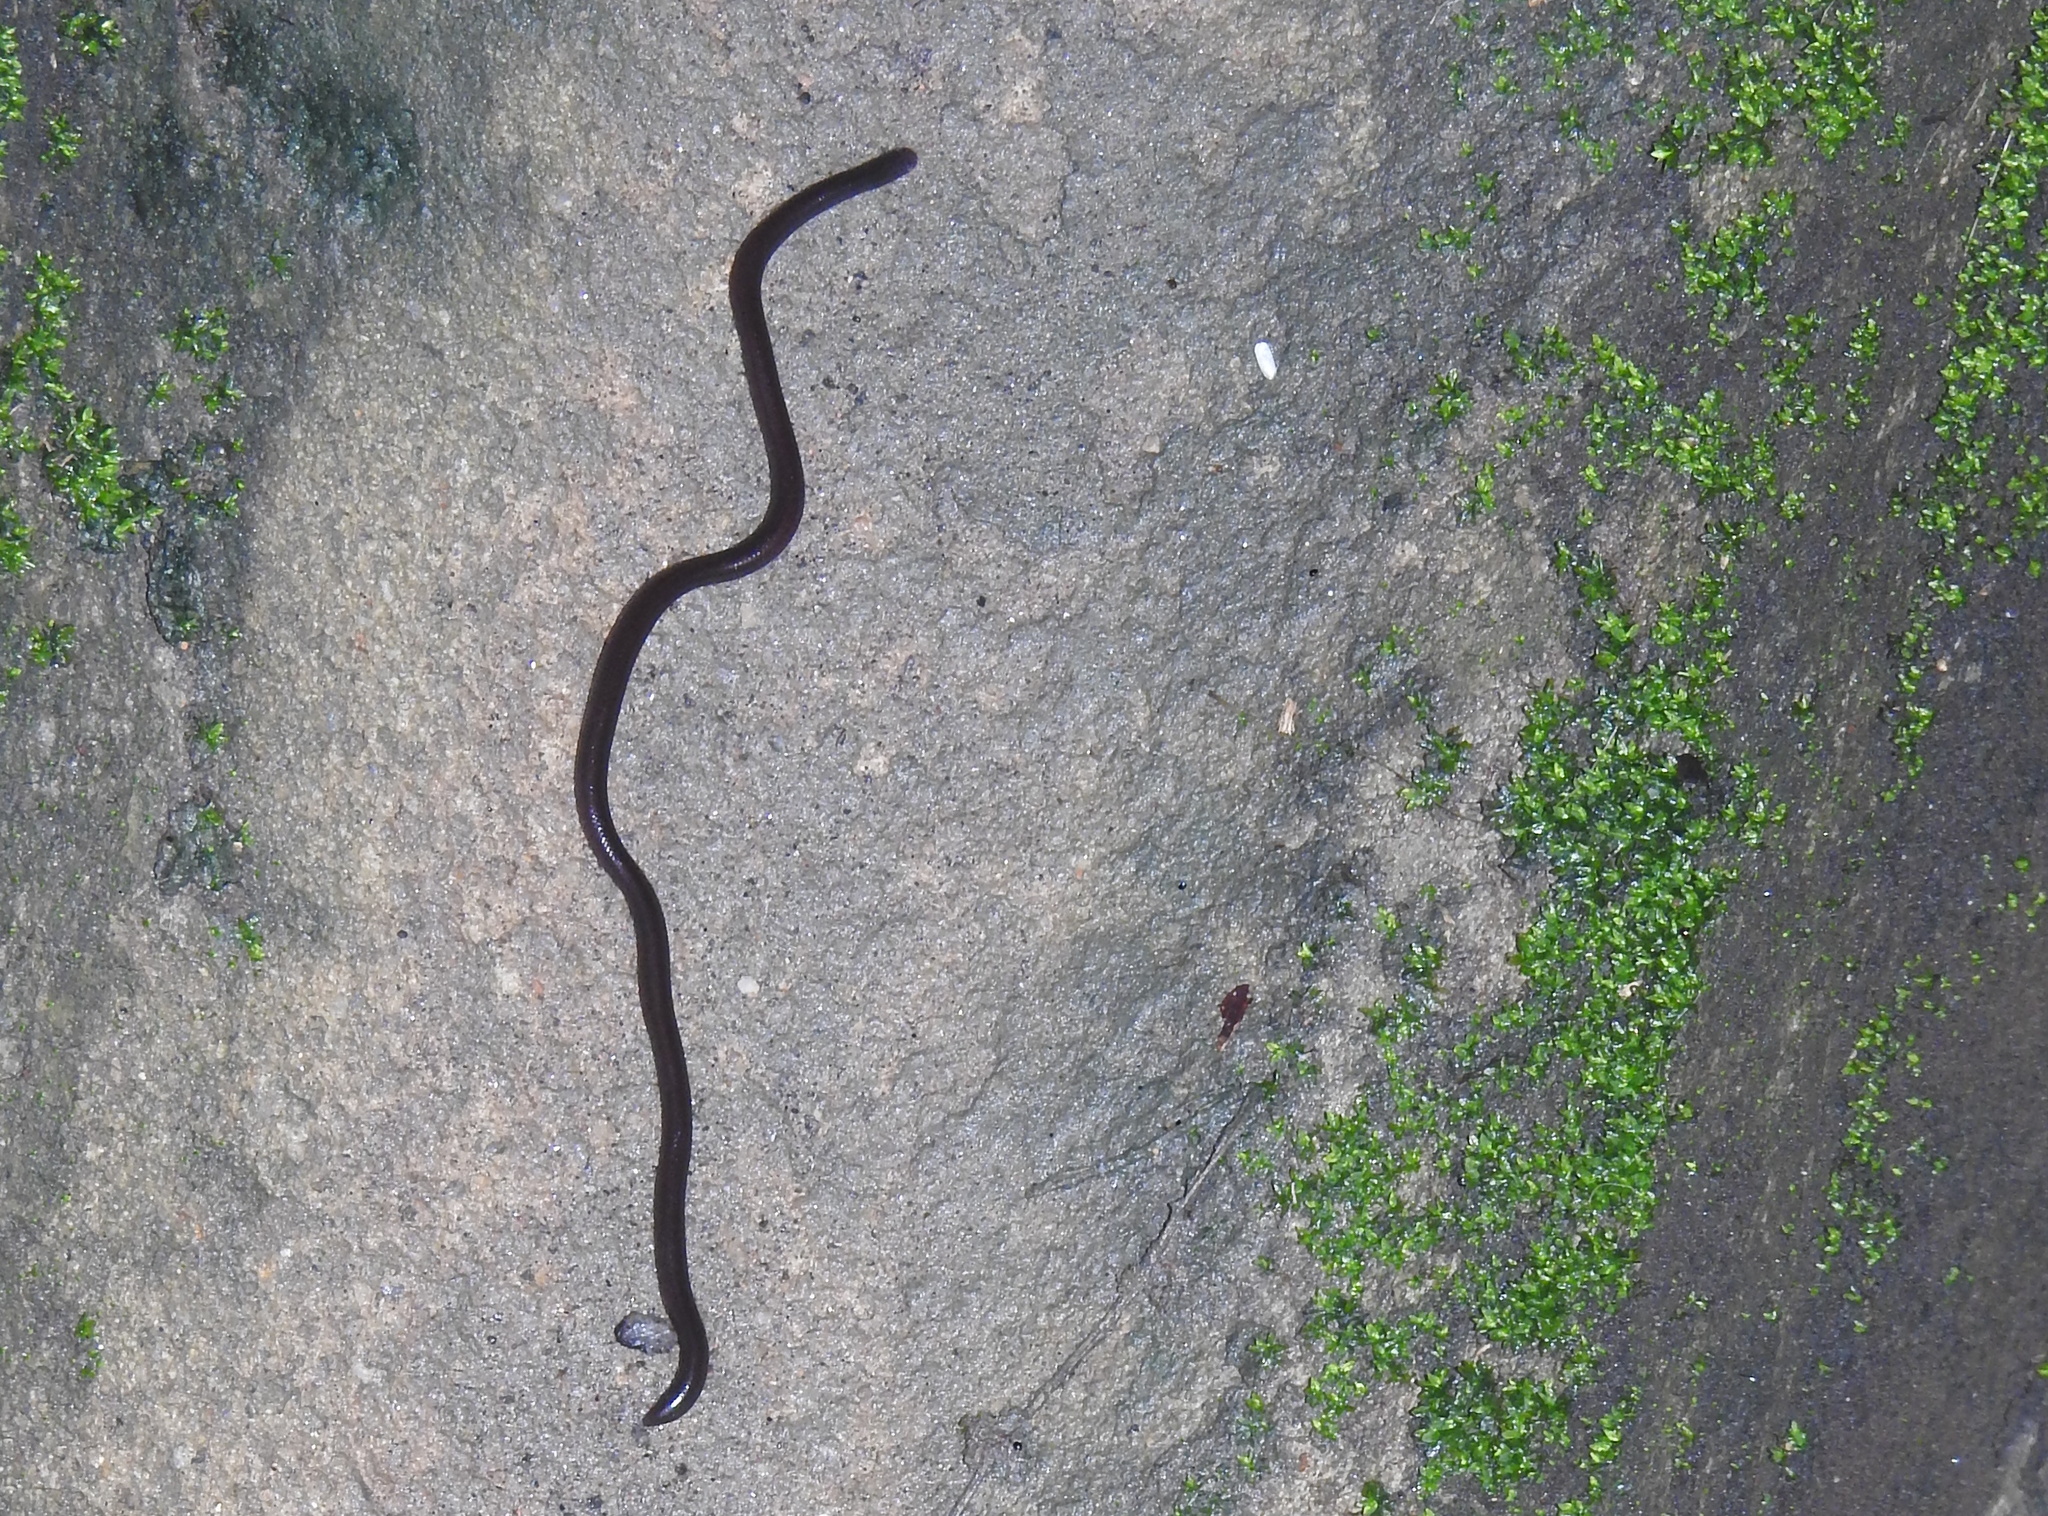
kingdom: Animalia
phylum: Chordata
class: Squamata
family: Typhlopidae
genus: Indotyphlops
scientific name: Indotyphlops braminus
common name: Brahminy blindsnake
